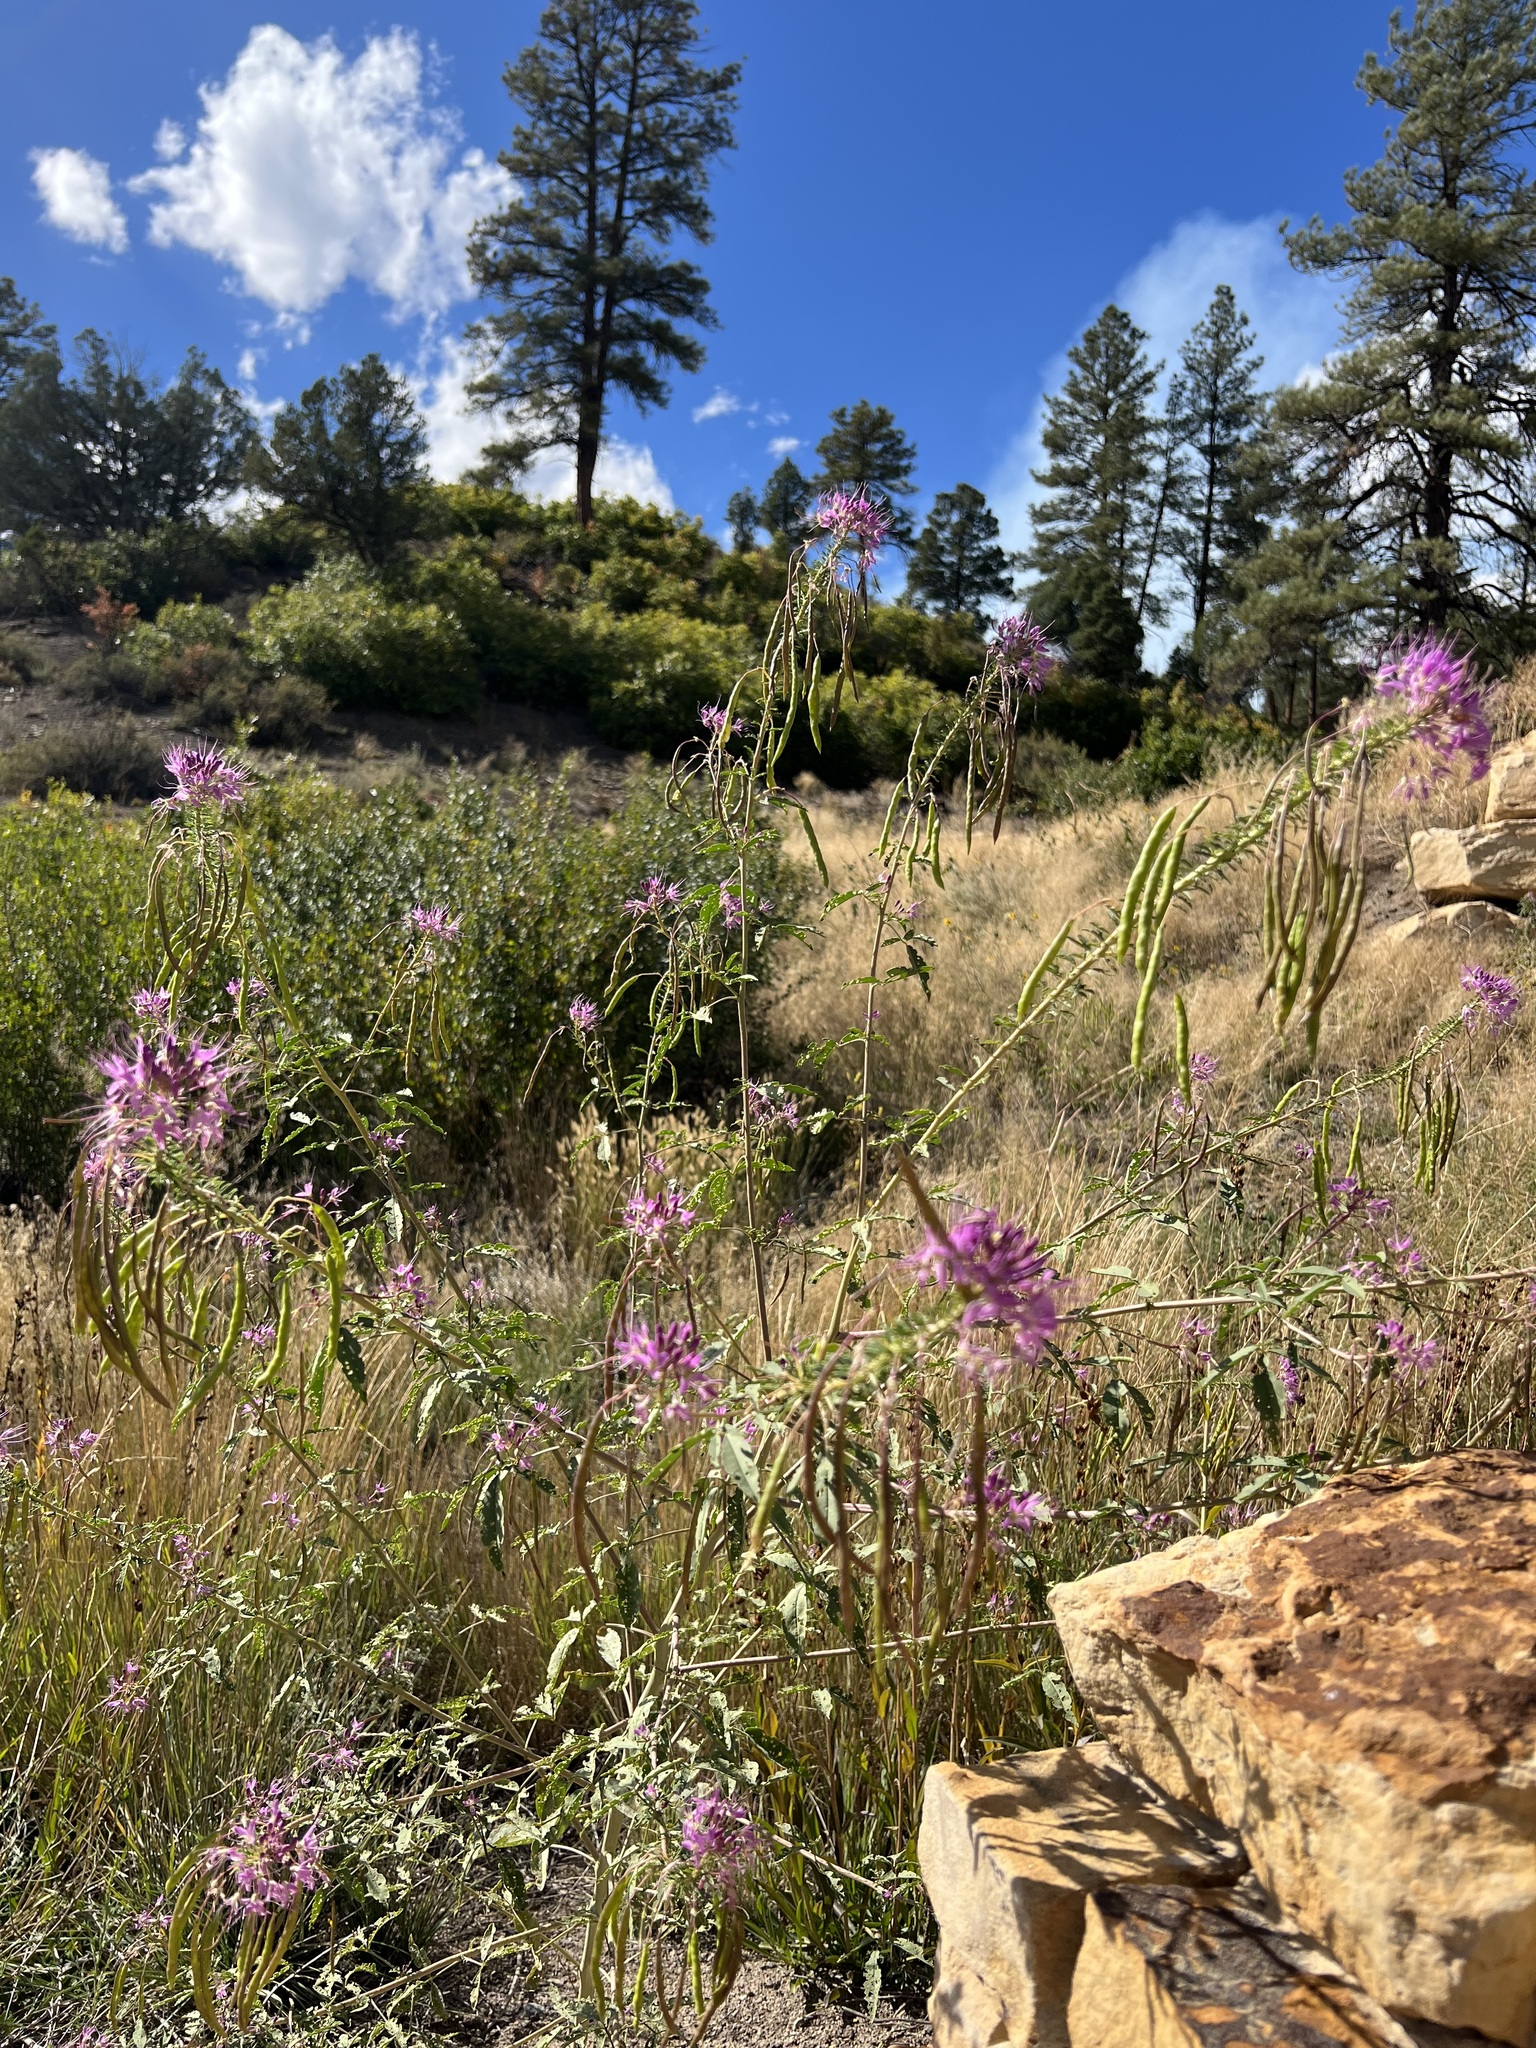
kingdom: Plantae
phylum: Tracheophyta
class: Magnoliopsida
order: Brassicales
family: Cleomaceae
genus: Cleomella
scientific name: Cleomella serrulata
